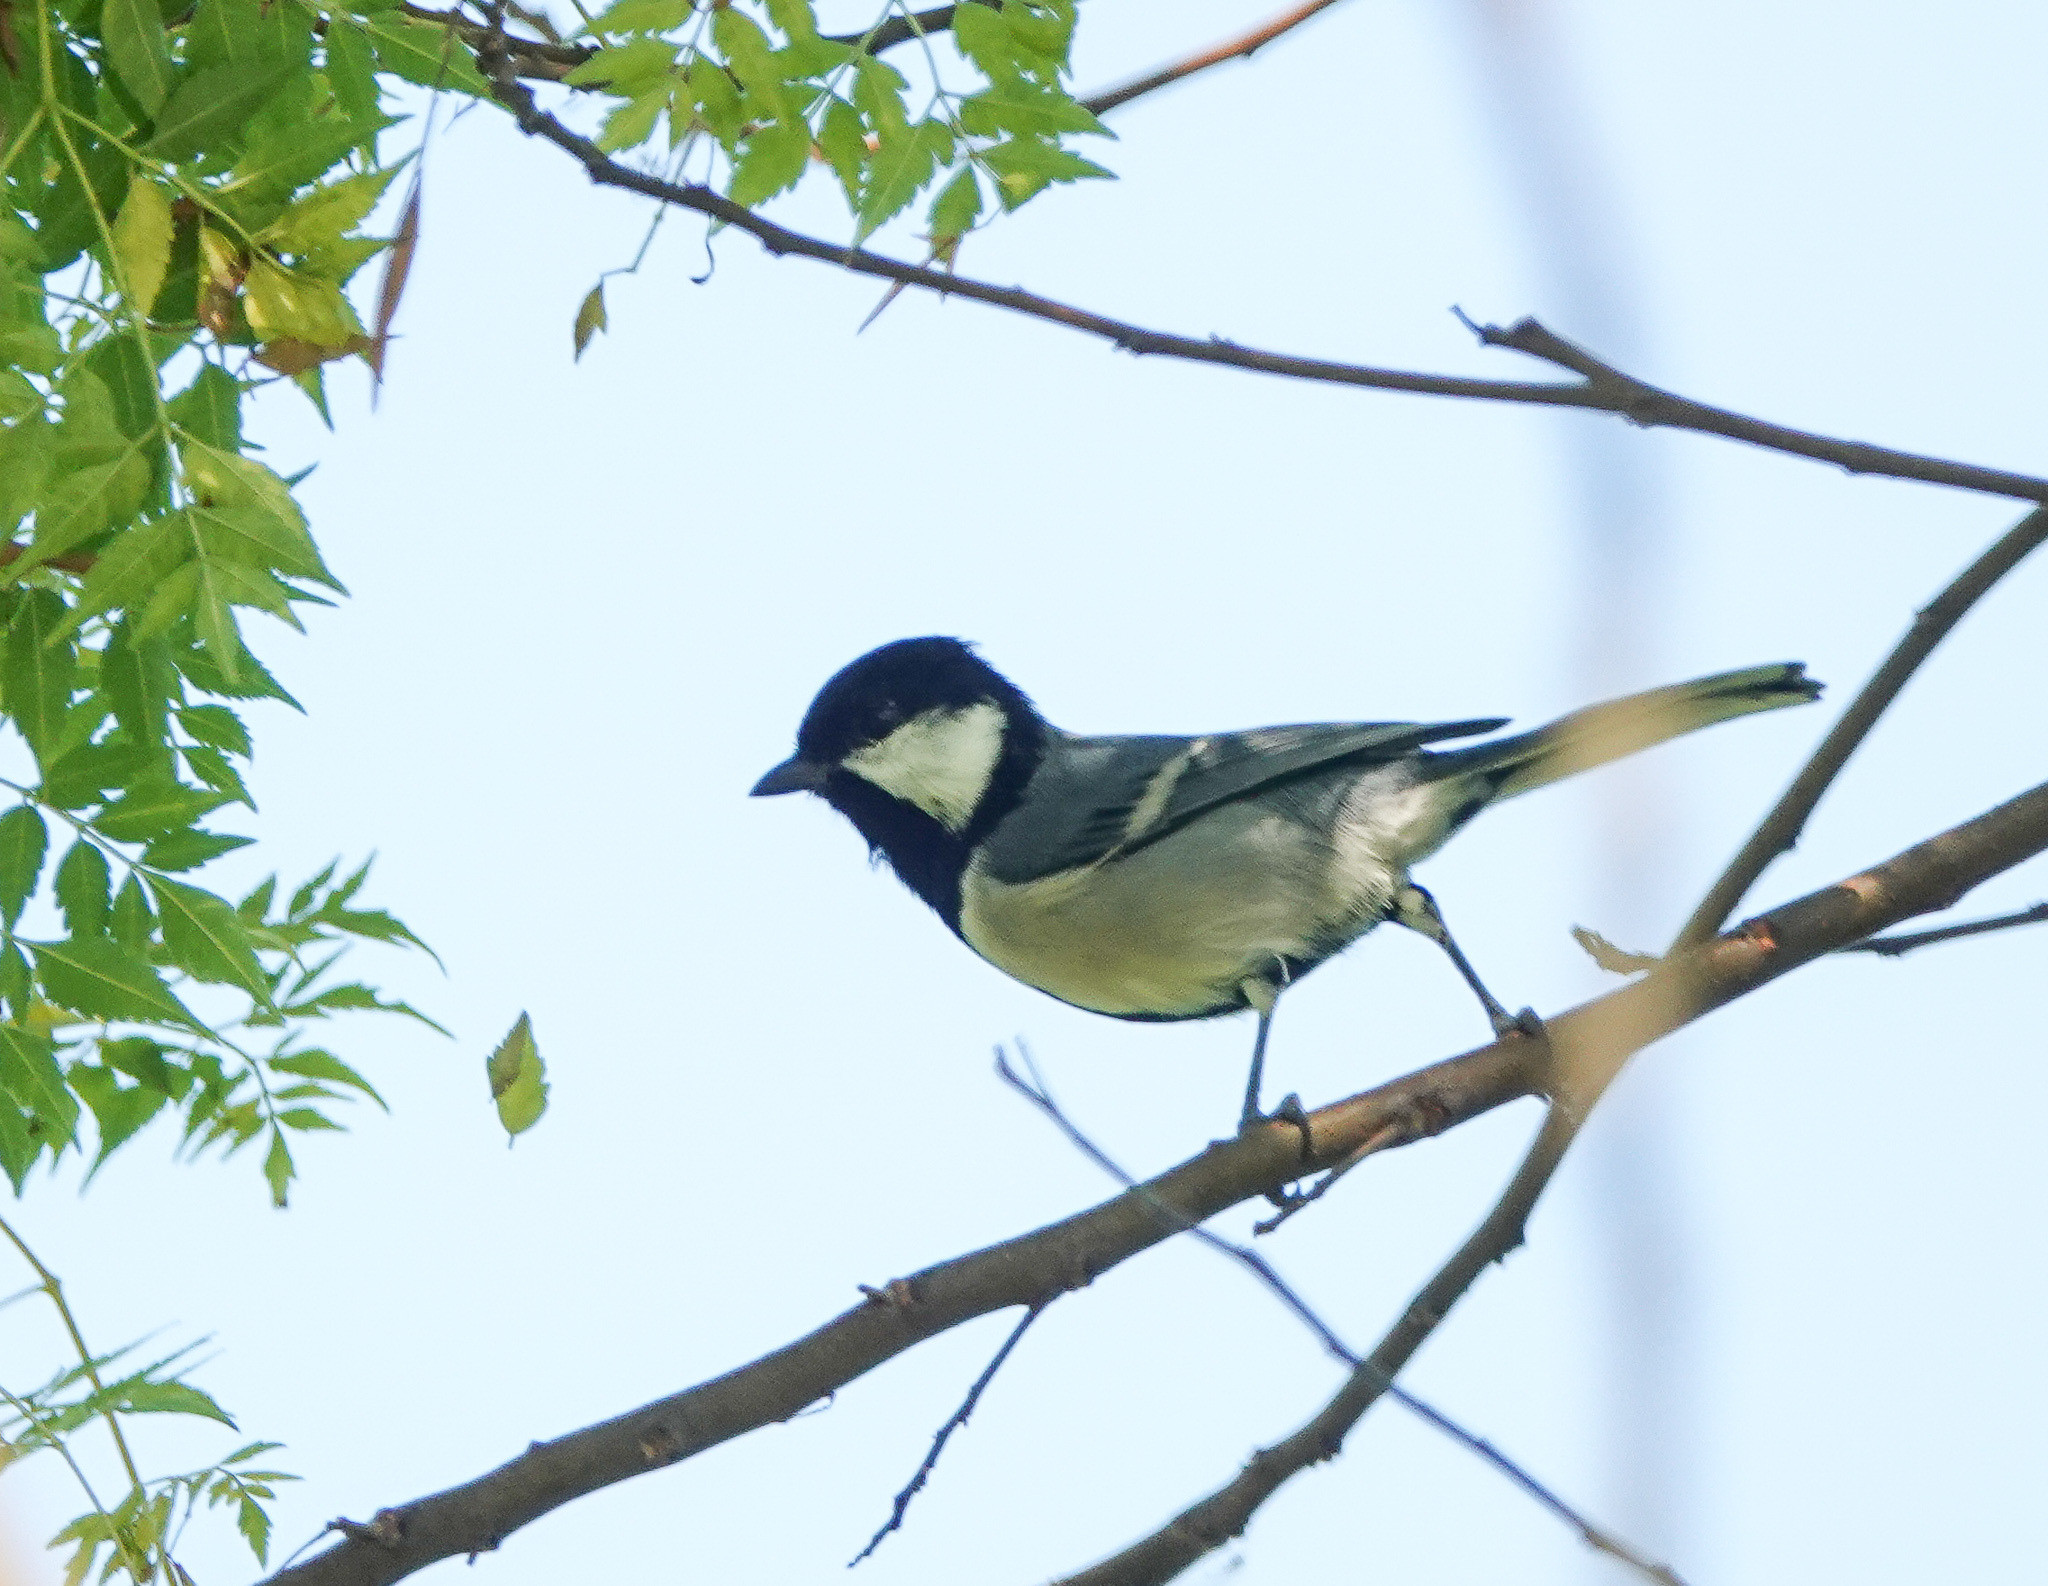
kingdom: Animalia
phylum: Chordata
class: Aves
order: Passeriformes
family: Paridae
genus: Parus
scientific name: Parus cinereus
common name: Cinereous tit
